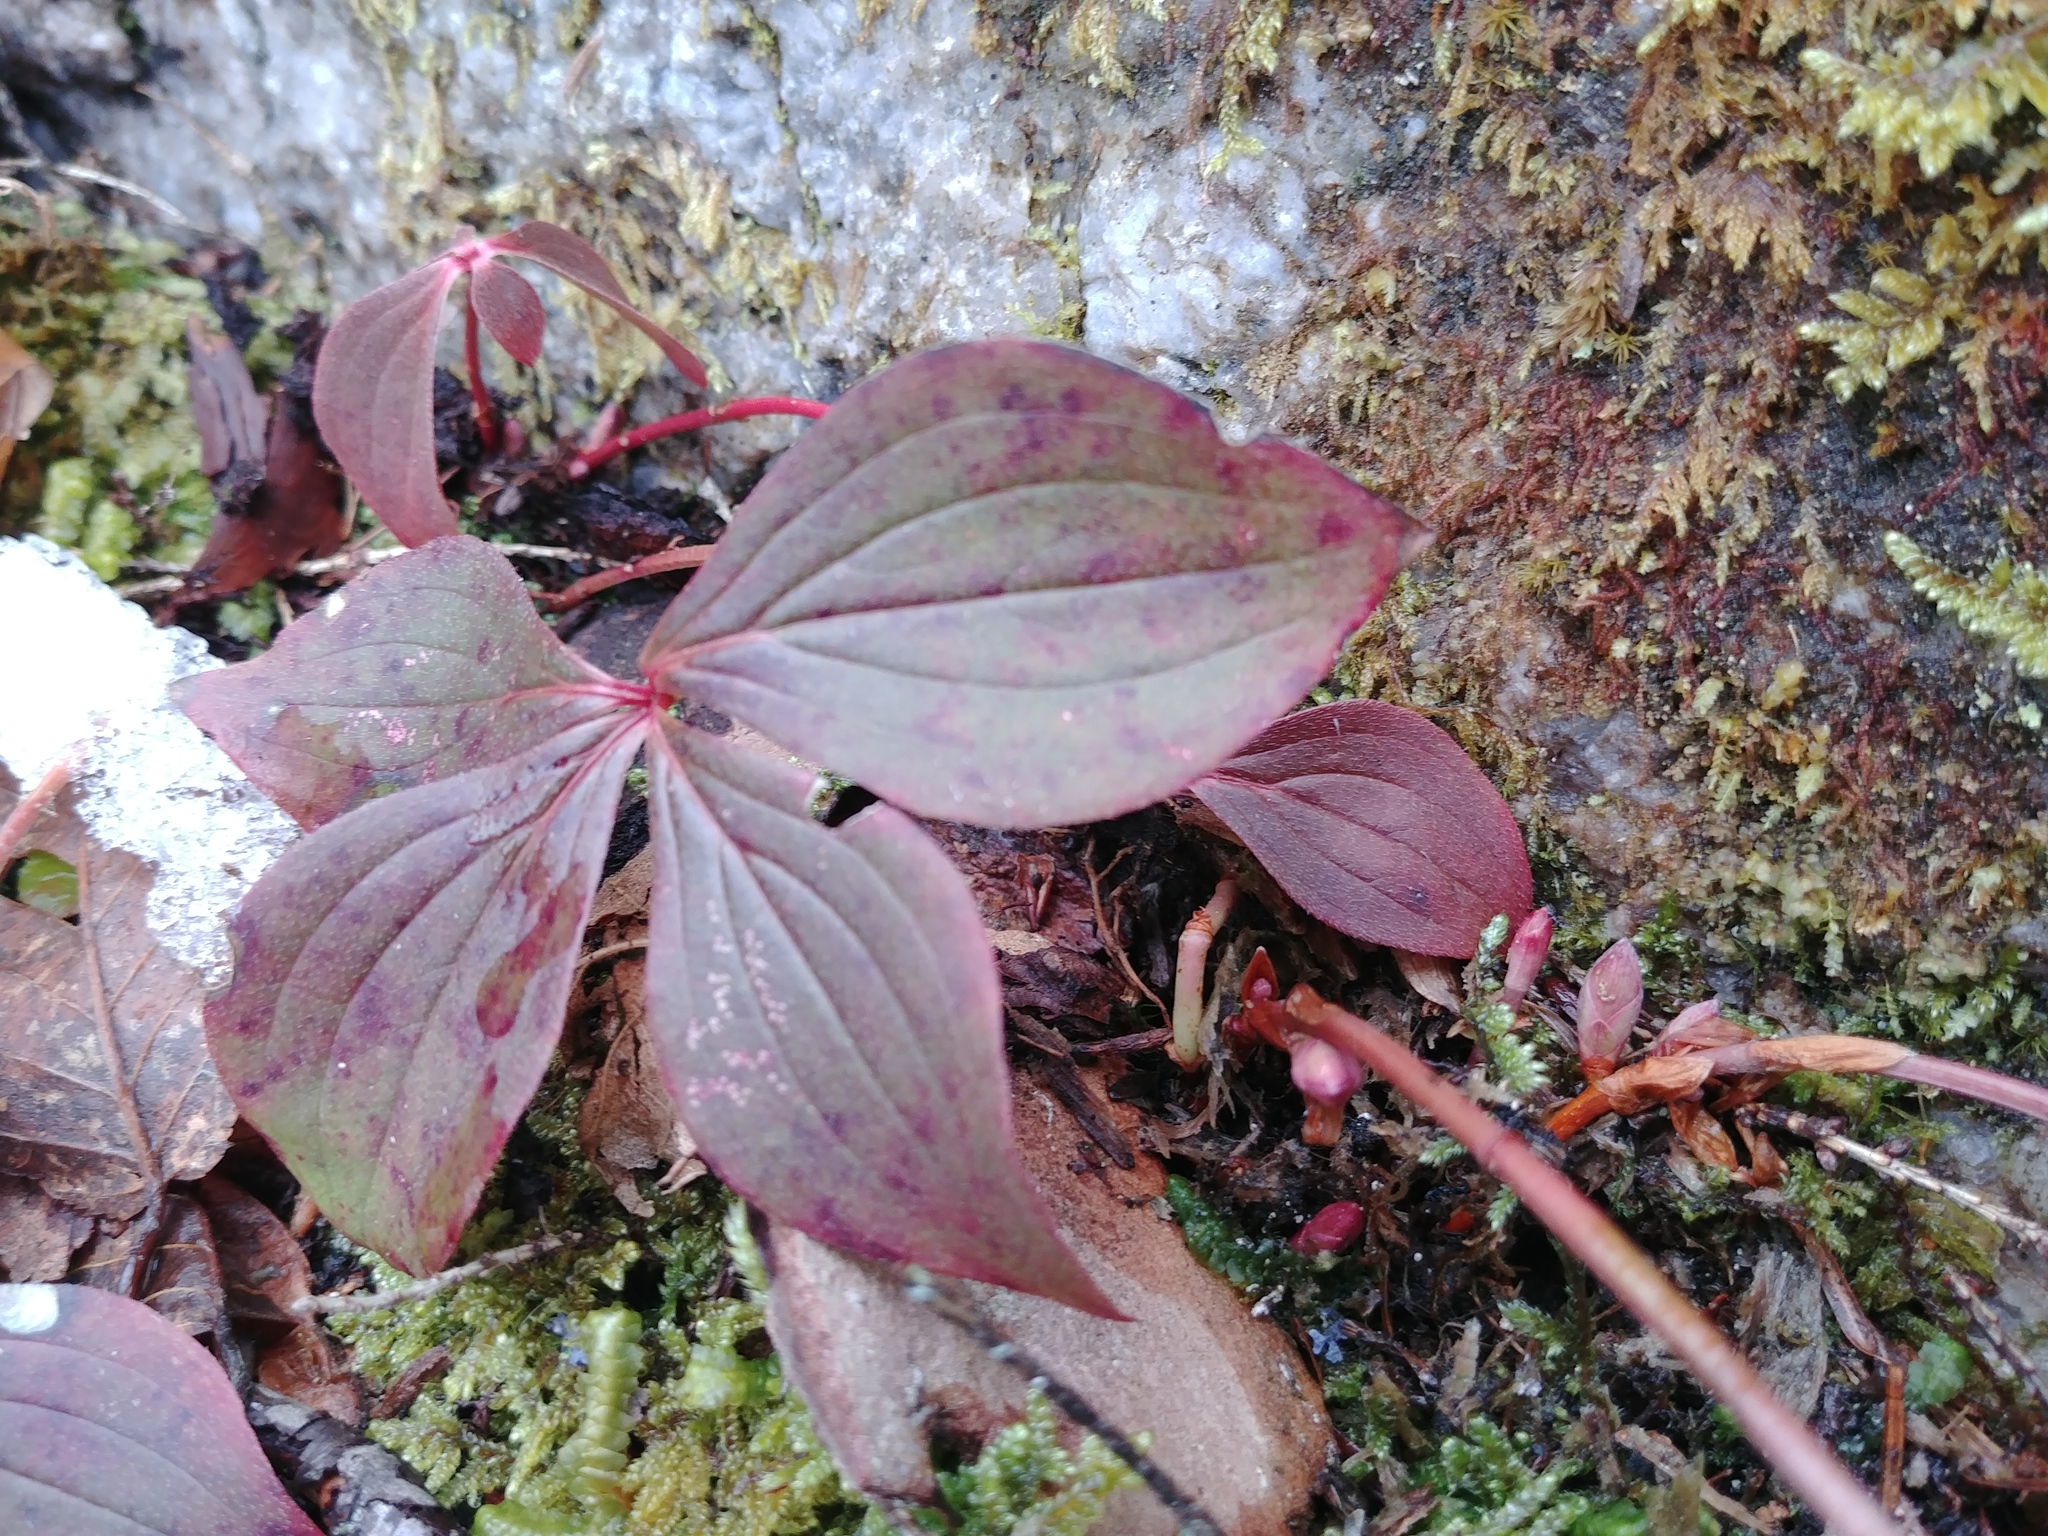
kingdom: Plantae
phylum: Tracheophyta
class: Magnoliopsida
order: Cornales
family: Cornaceae
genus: Cornus
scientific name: Cornus canadensis
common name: Creeping dogwood
